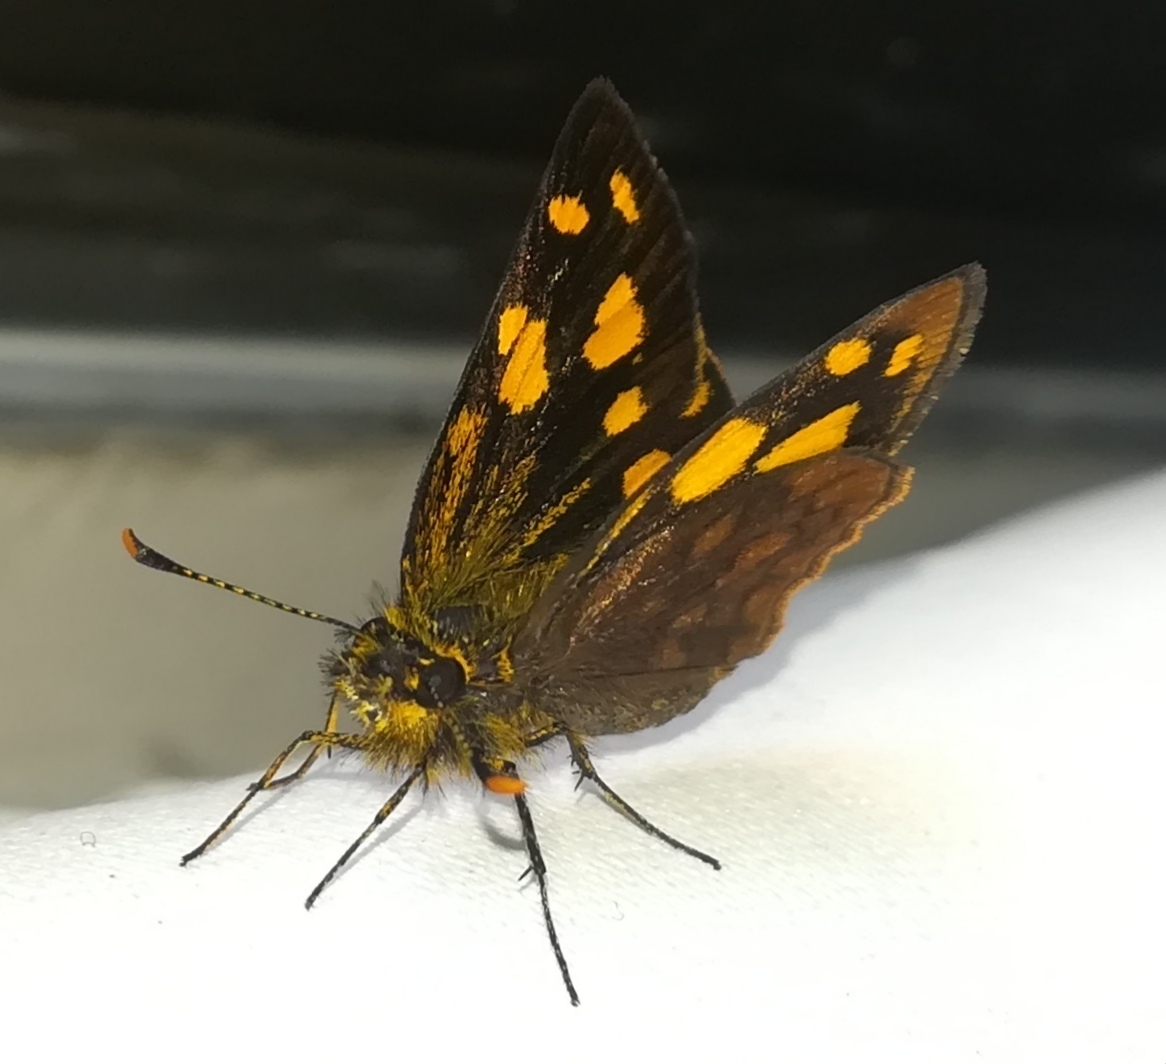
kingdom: Animalia
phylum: Arthropoda
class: Insecta
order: Lepidoptera
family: Hesperiidae
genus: Metisella
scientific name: Metisella metis
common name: Western gold-spotted sylph
